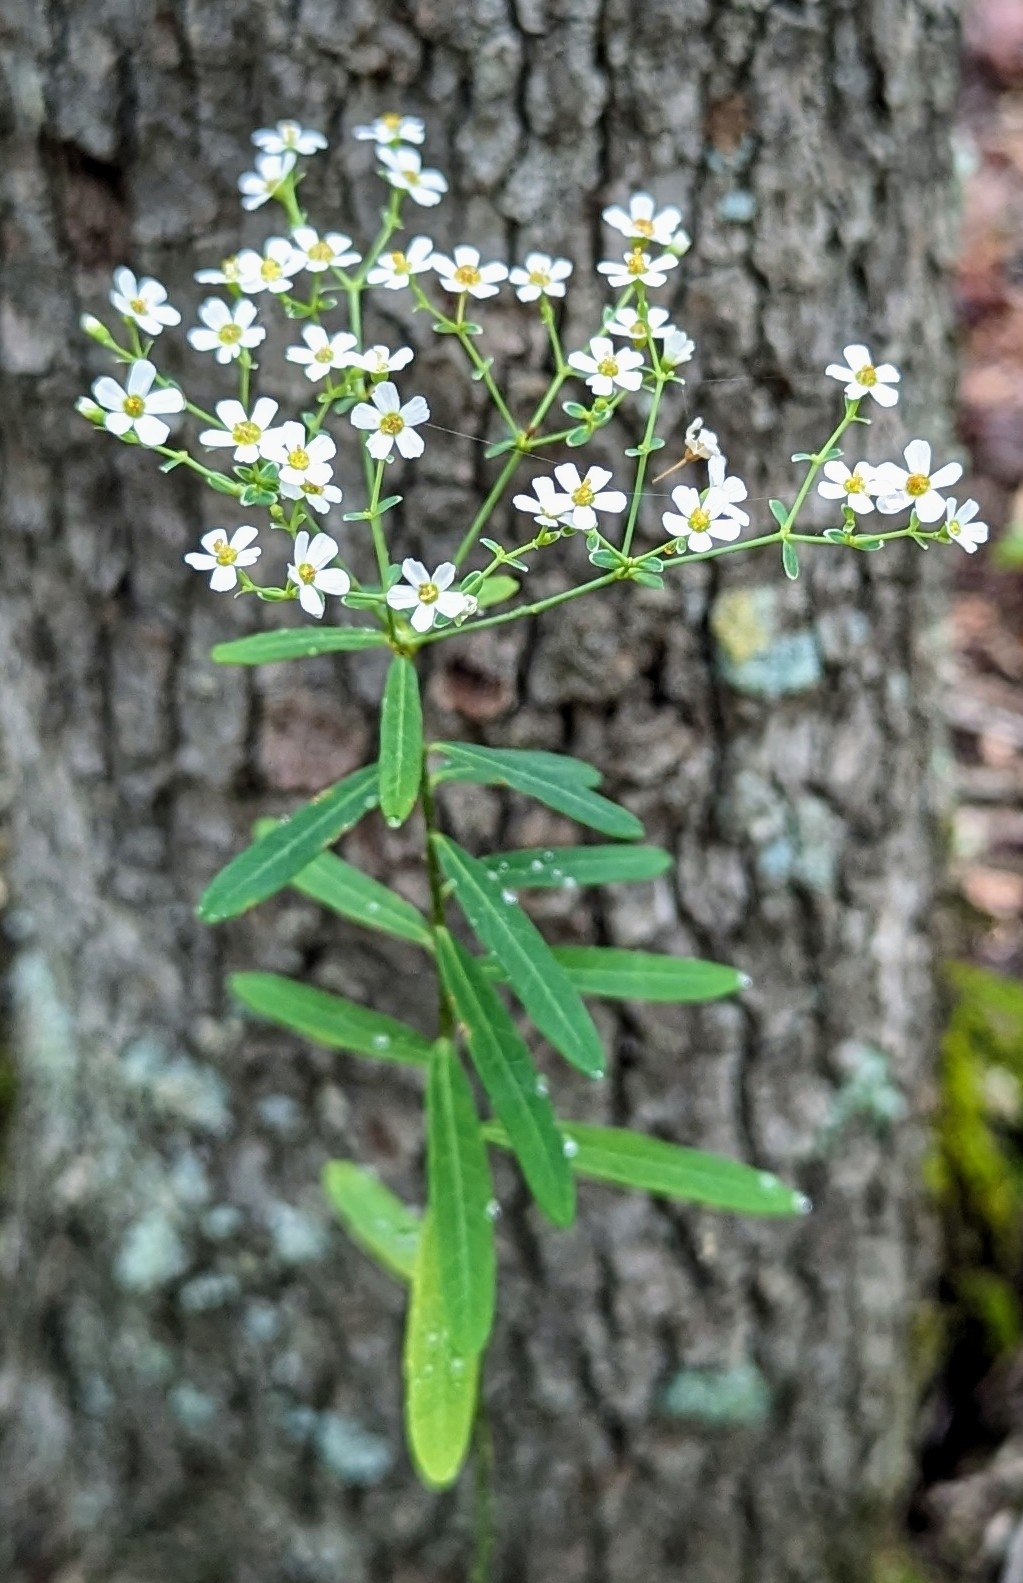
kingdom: Plantae
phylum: Tracheophyta
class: Magnoliopsida
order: Malpighiales
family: Euphorbiaceae
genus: Euphorbia
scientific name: Euphorbia corollata
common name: Flowering spurge
